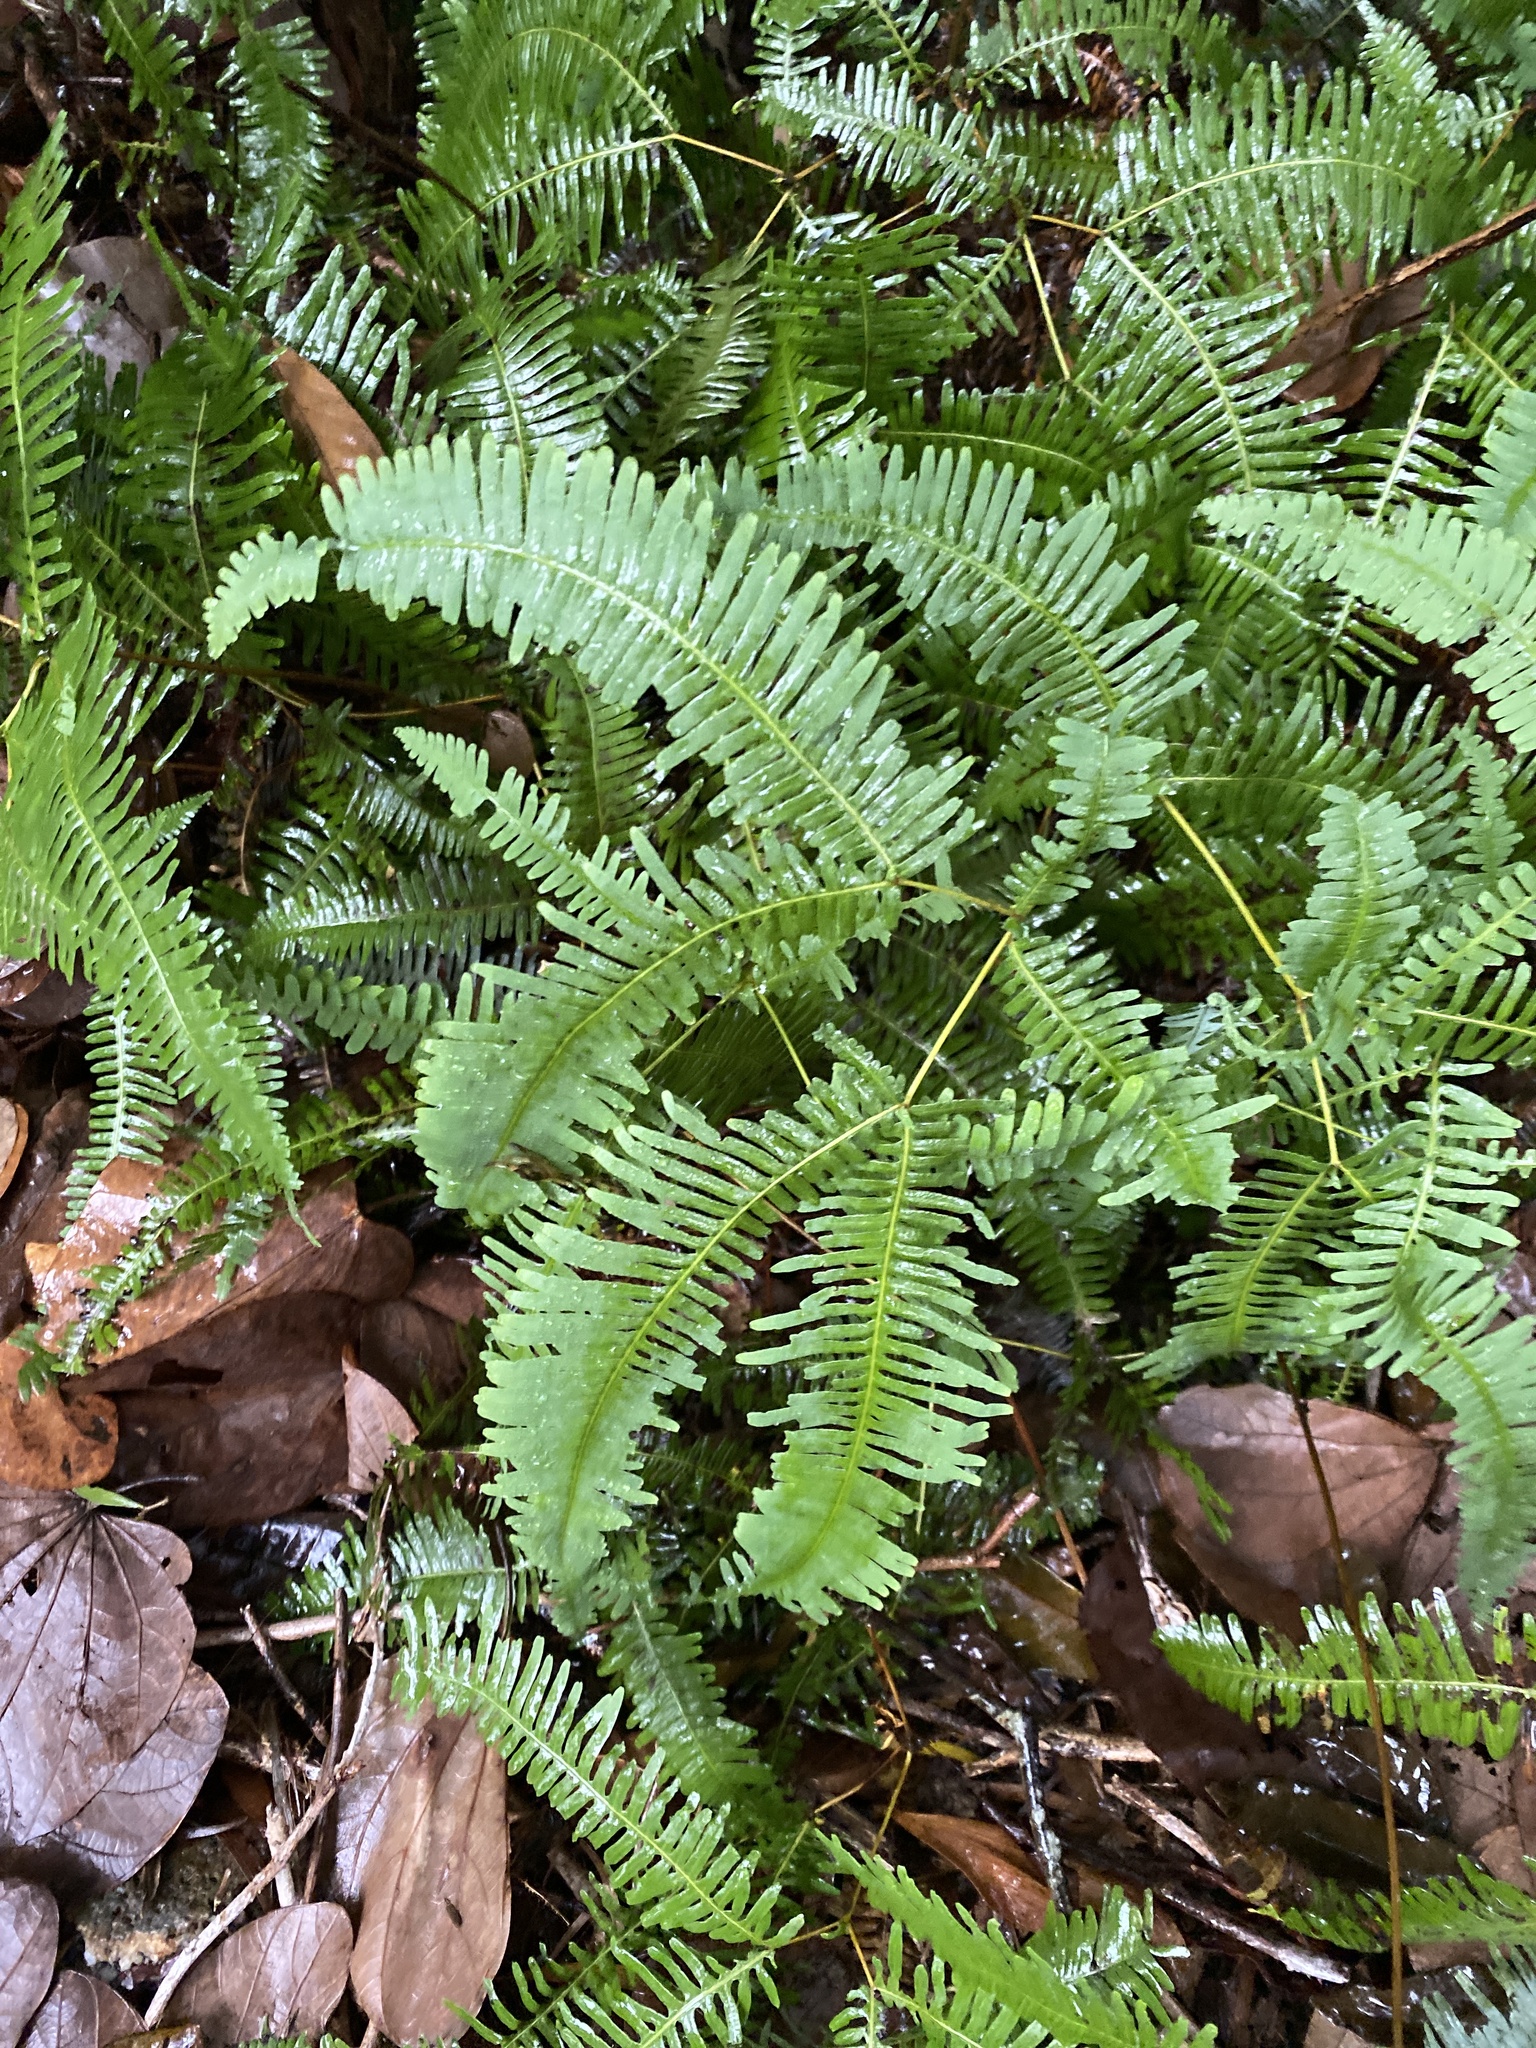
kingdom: Plantae
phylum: Tracheophyta
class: Polypodiopsida
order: Gleicheniales
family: Gleicheniaceae
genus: Dicranopteris
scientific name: Dicranopteris pedata
